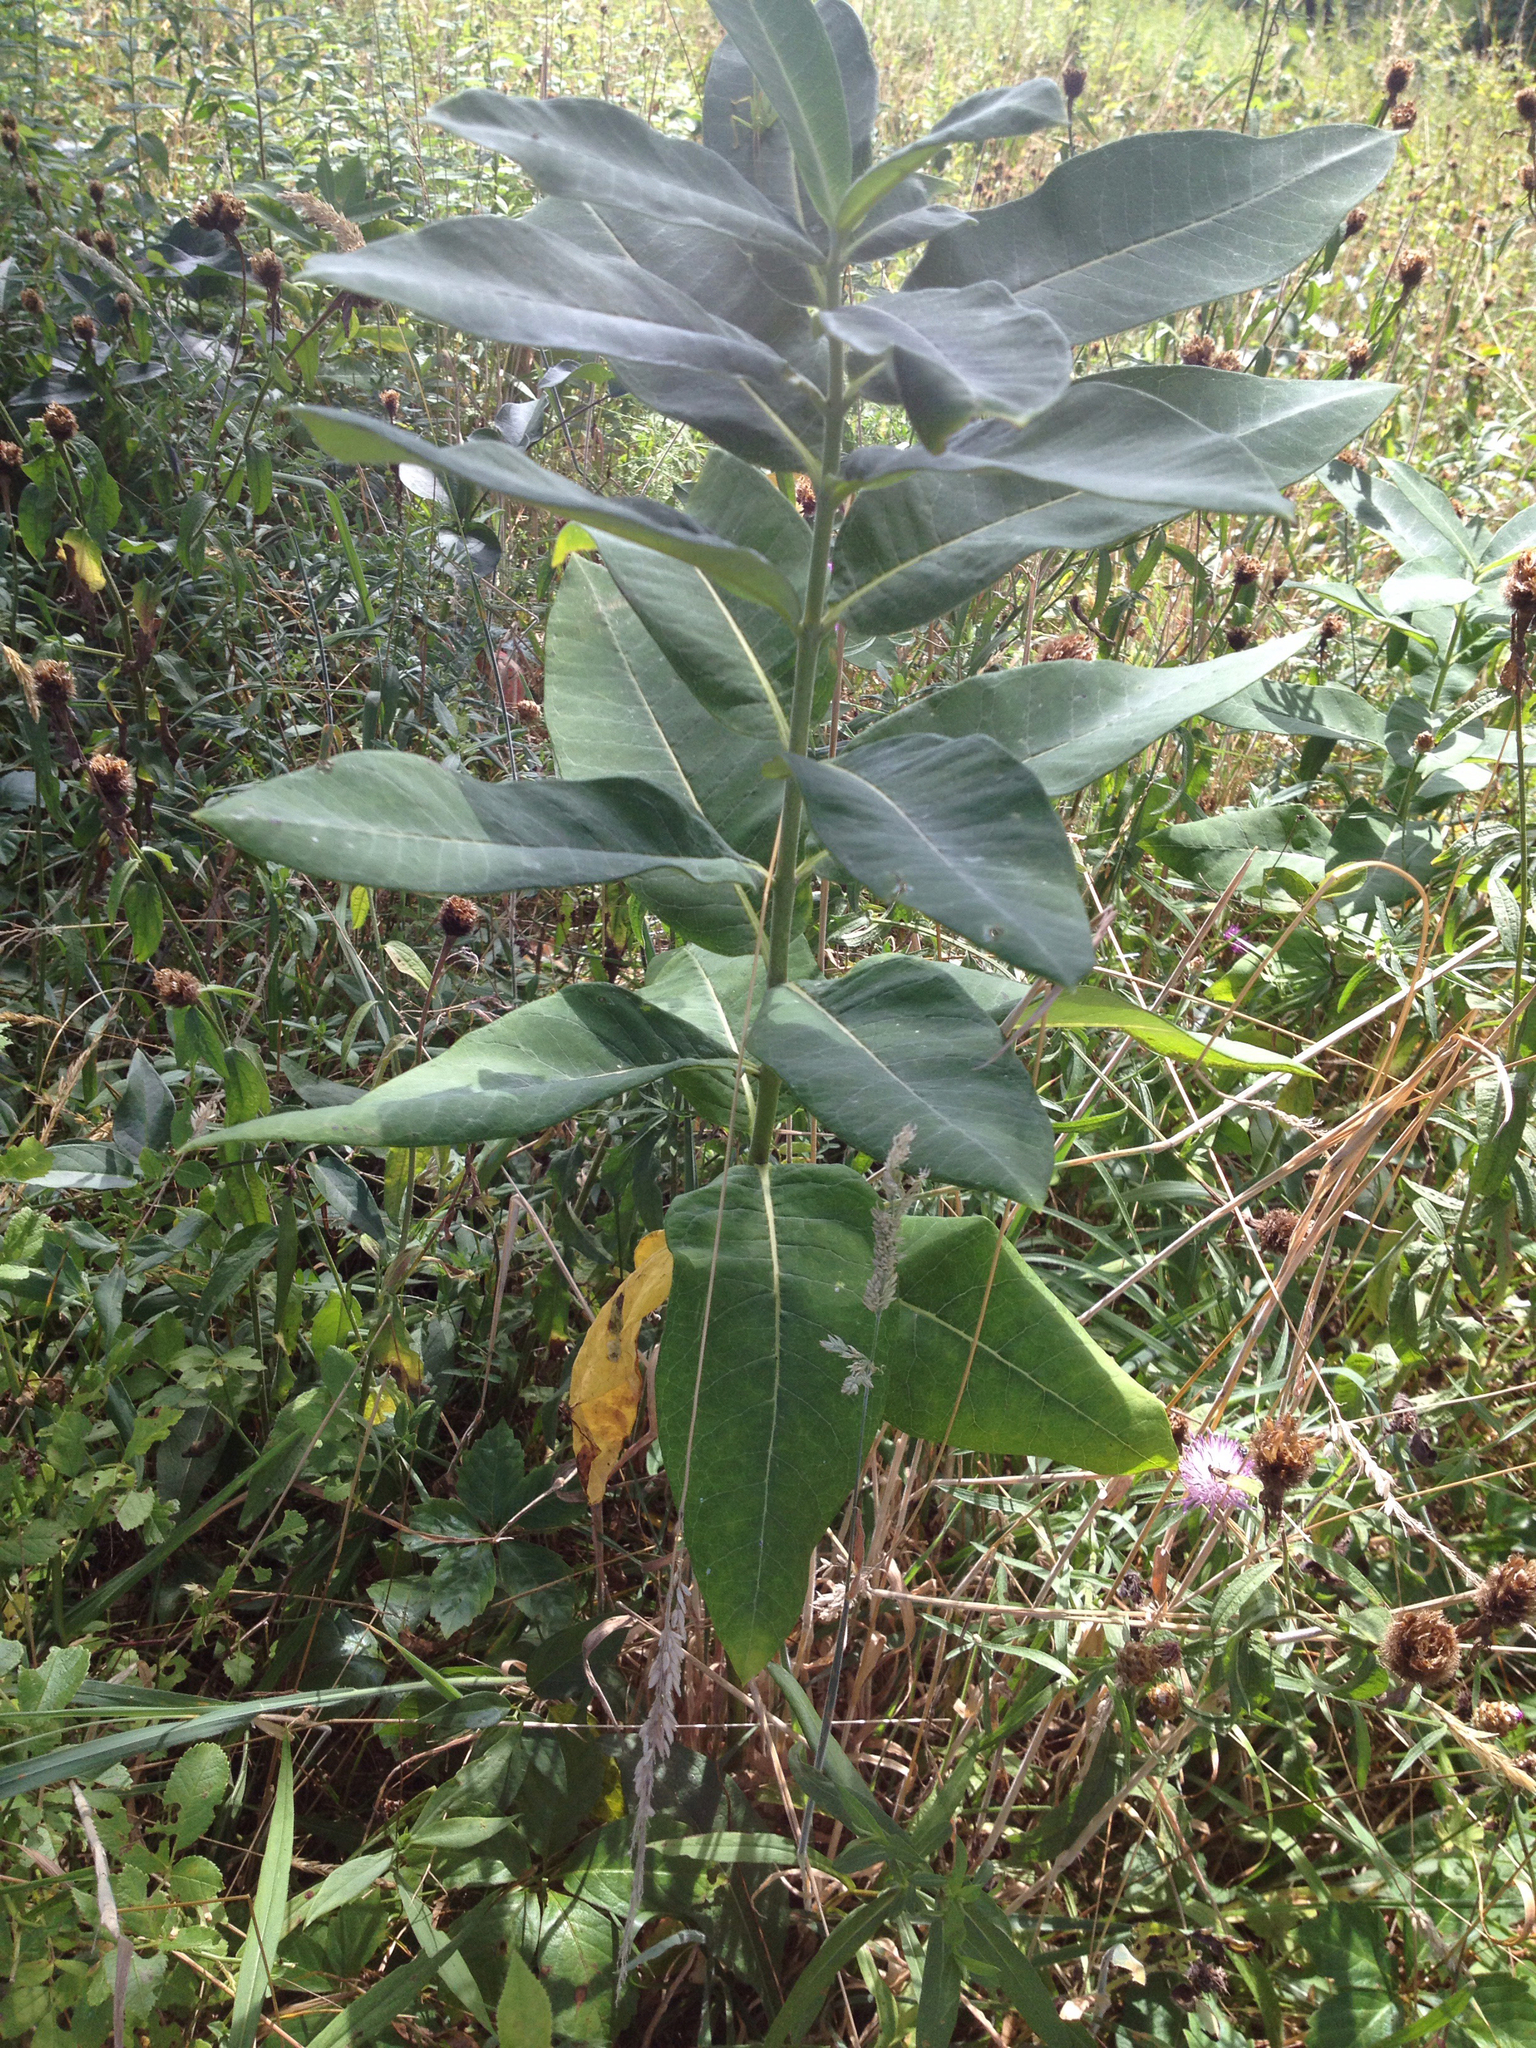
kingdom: Plantae
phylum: Tracheophyta
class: Magnoliopsida
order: Gentianales
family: Apocynaceae
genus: Asclepias
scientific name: Asclepias syriaca
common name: Common milkweed
